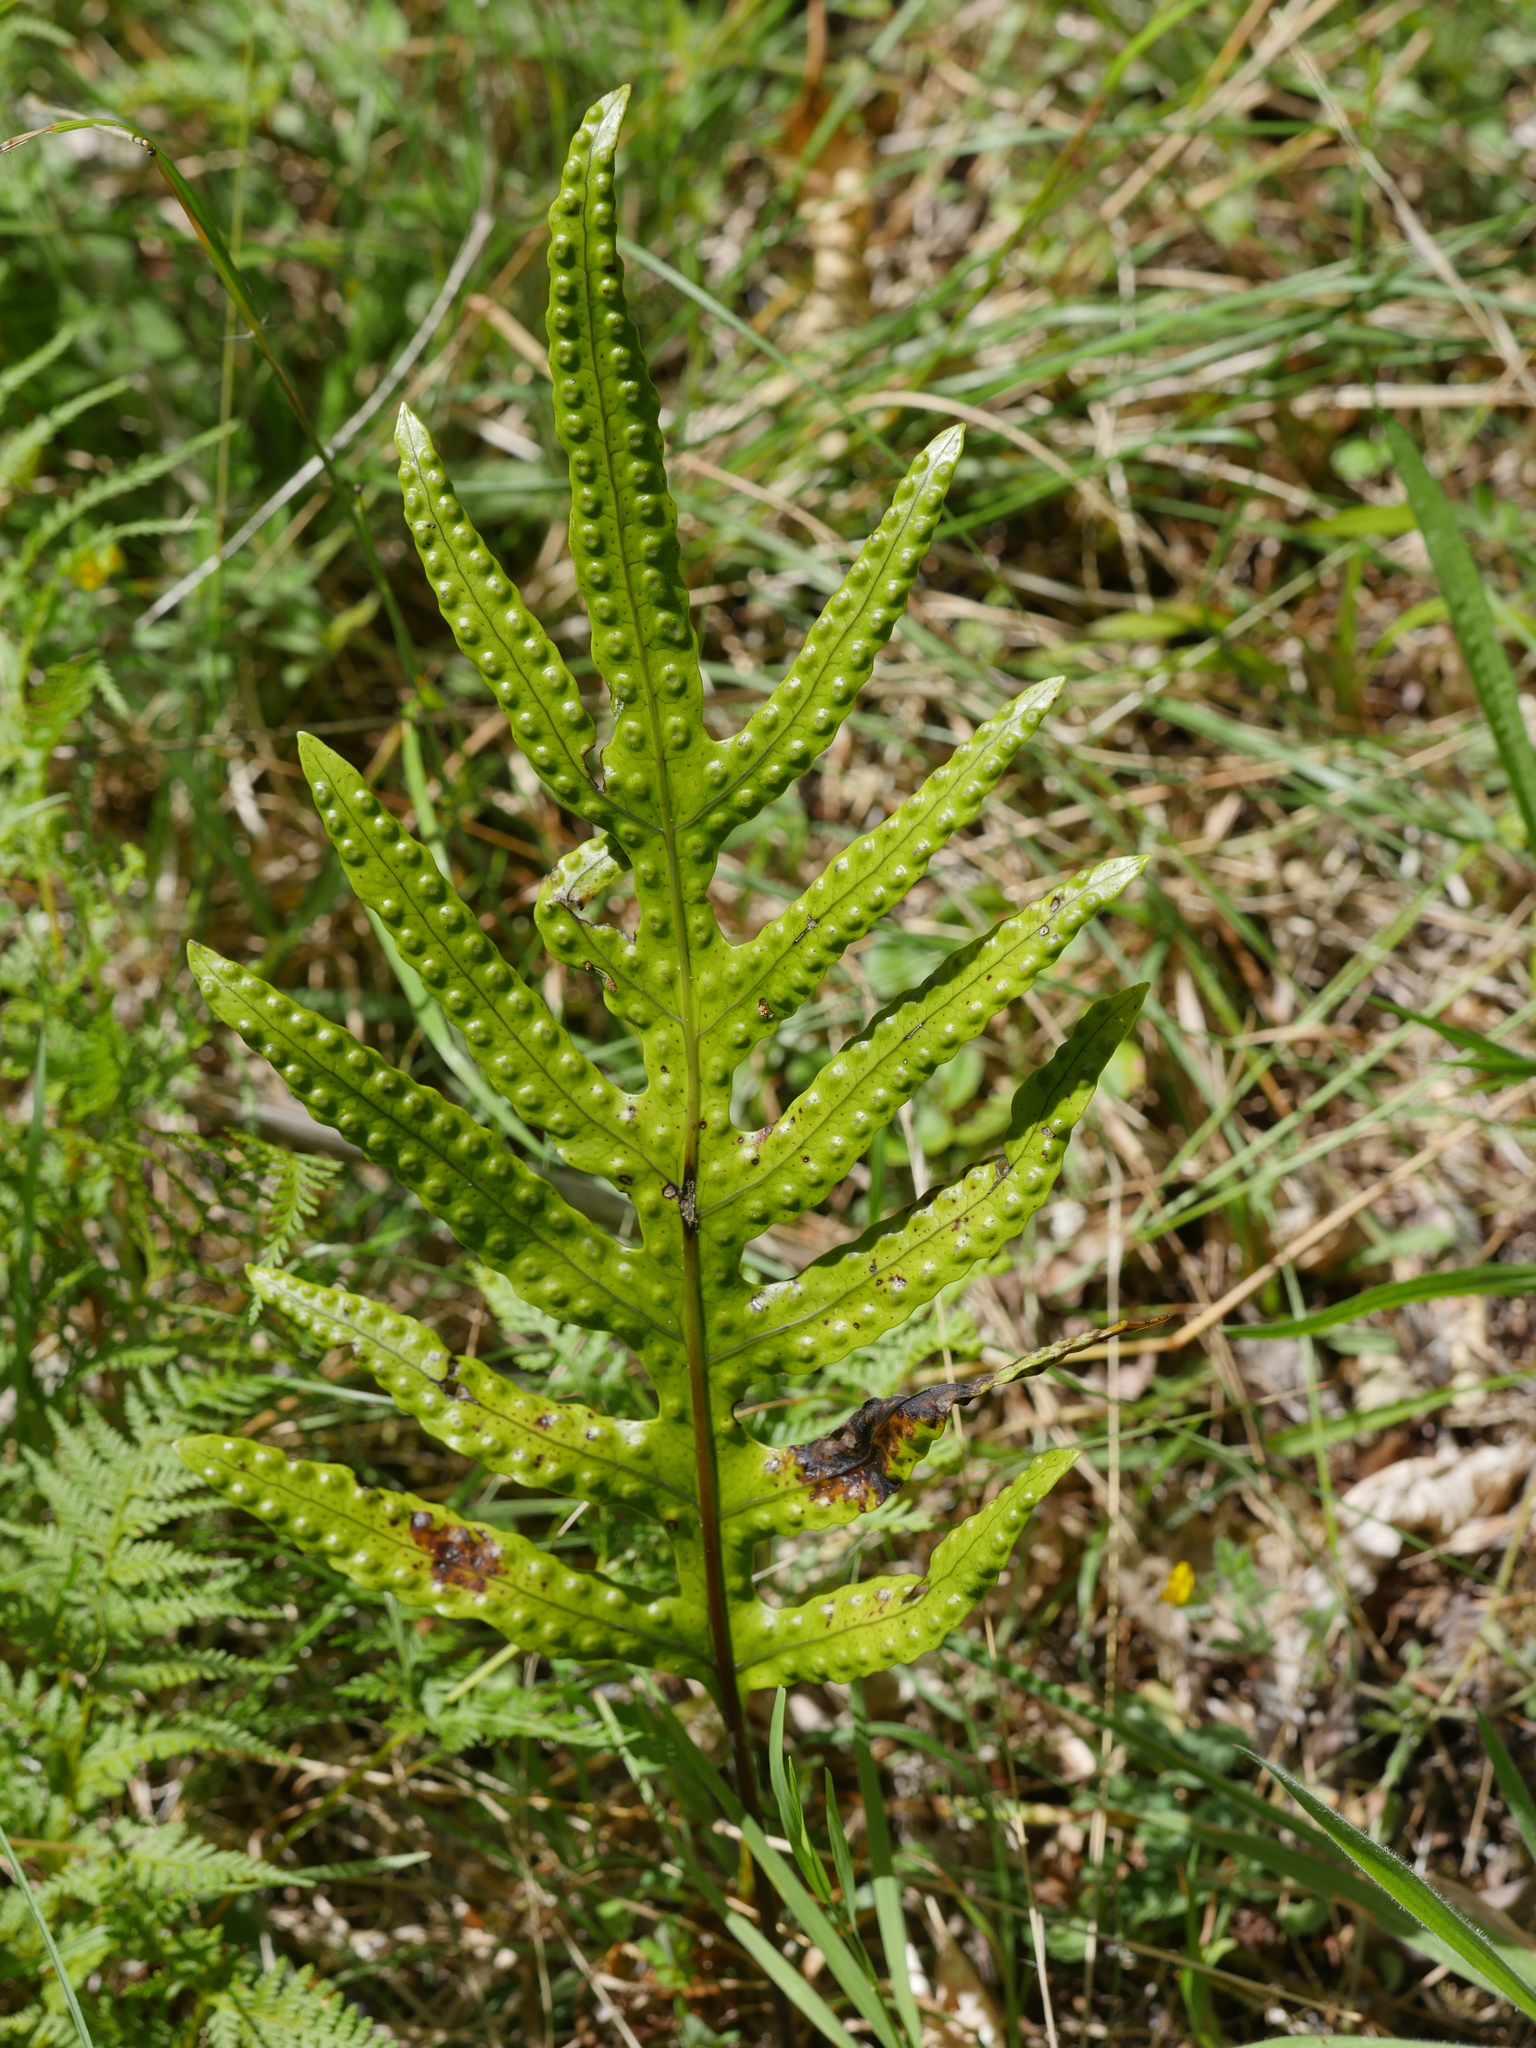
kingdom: Plantae
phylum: Tracheophyta
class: Polypodiopsida
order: Polypodiales
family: Polypodiaceae
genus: Lecanopteris
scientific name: Lecanopteris pustulata
